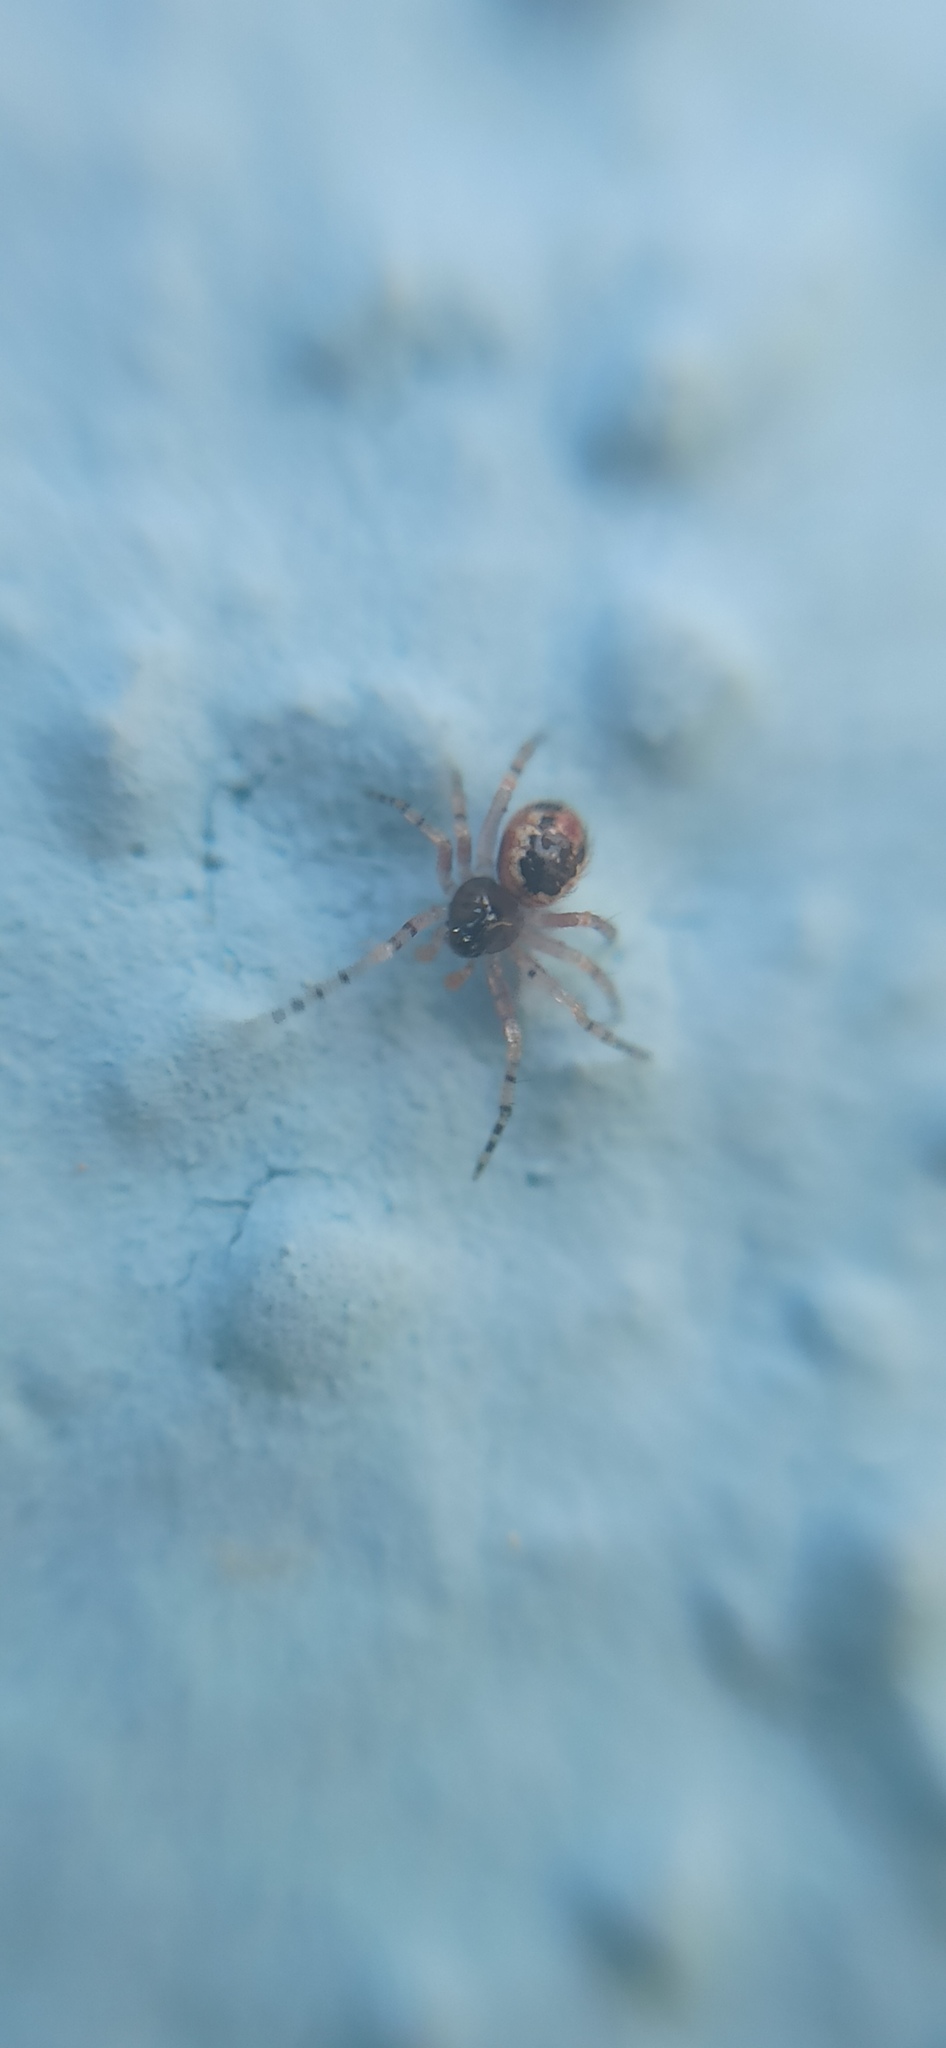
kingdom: Animalia
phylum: Arthropoda
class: Arachnida
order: Araneae
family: Theridiidae
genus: Sardinidion
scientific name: Sardinidion blackwalli
